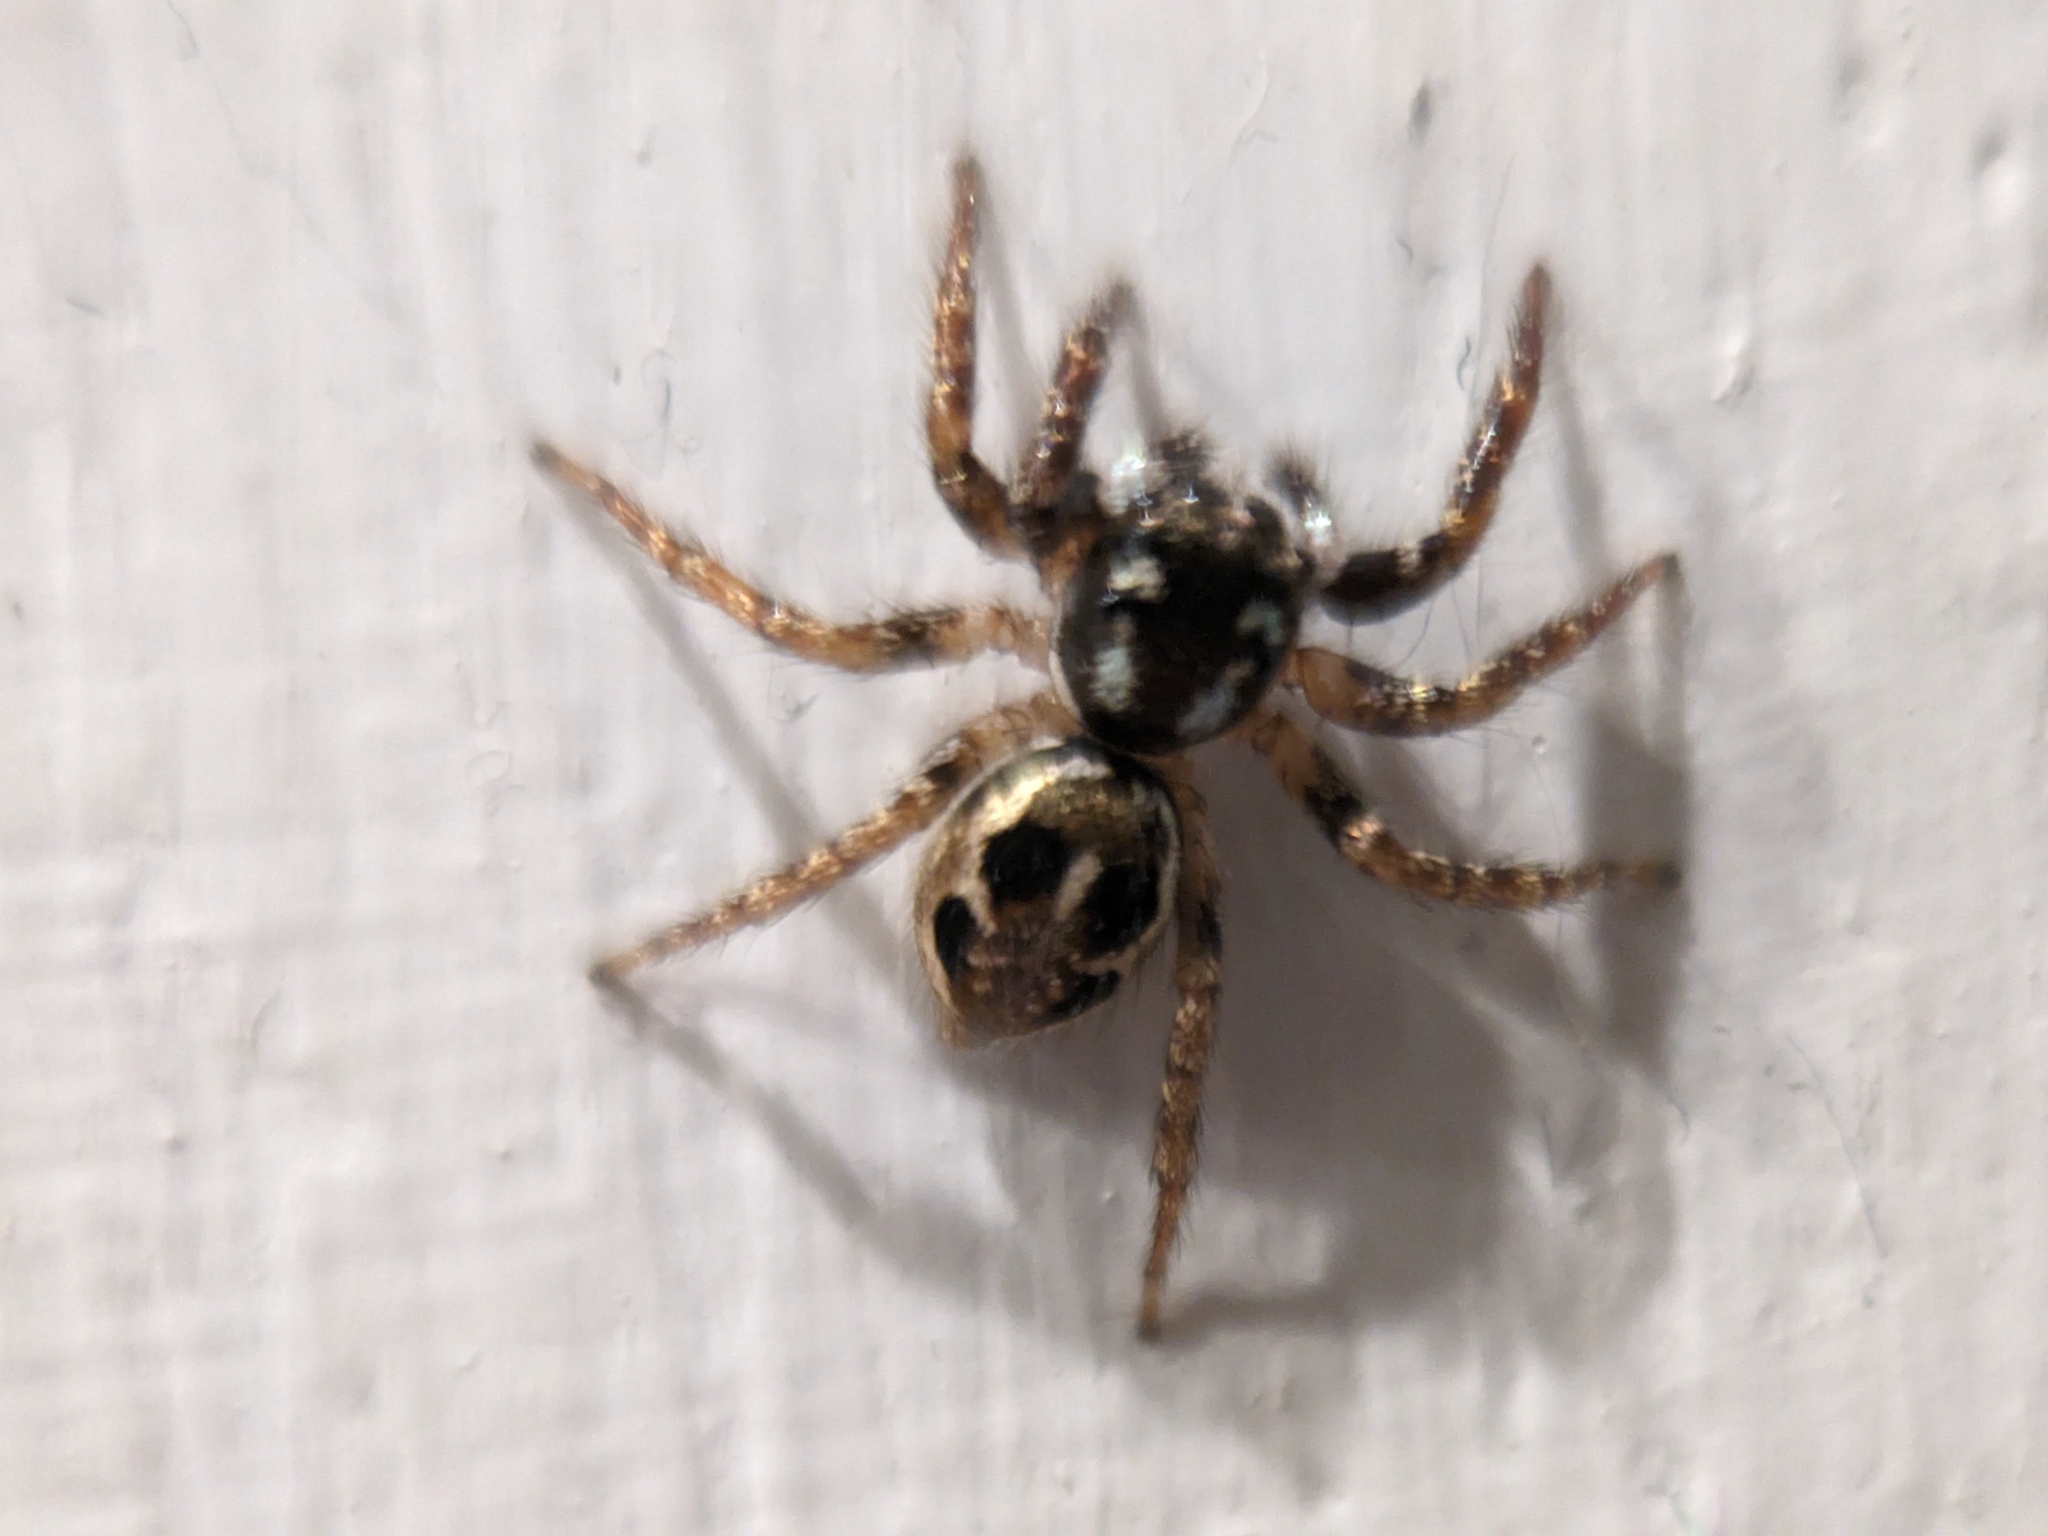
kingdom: Animalia
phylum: Arthropoda
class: Arachnida
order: Araneae
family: Salticidae
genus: Anasaitis
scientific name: Anasaitis canosa
